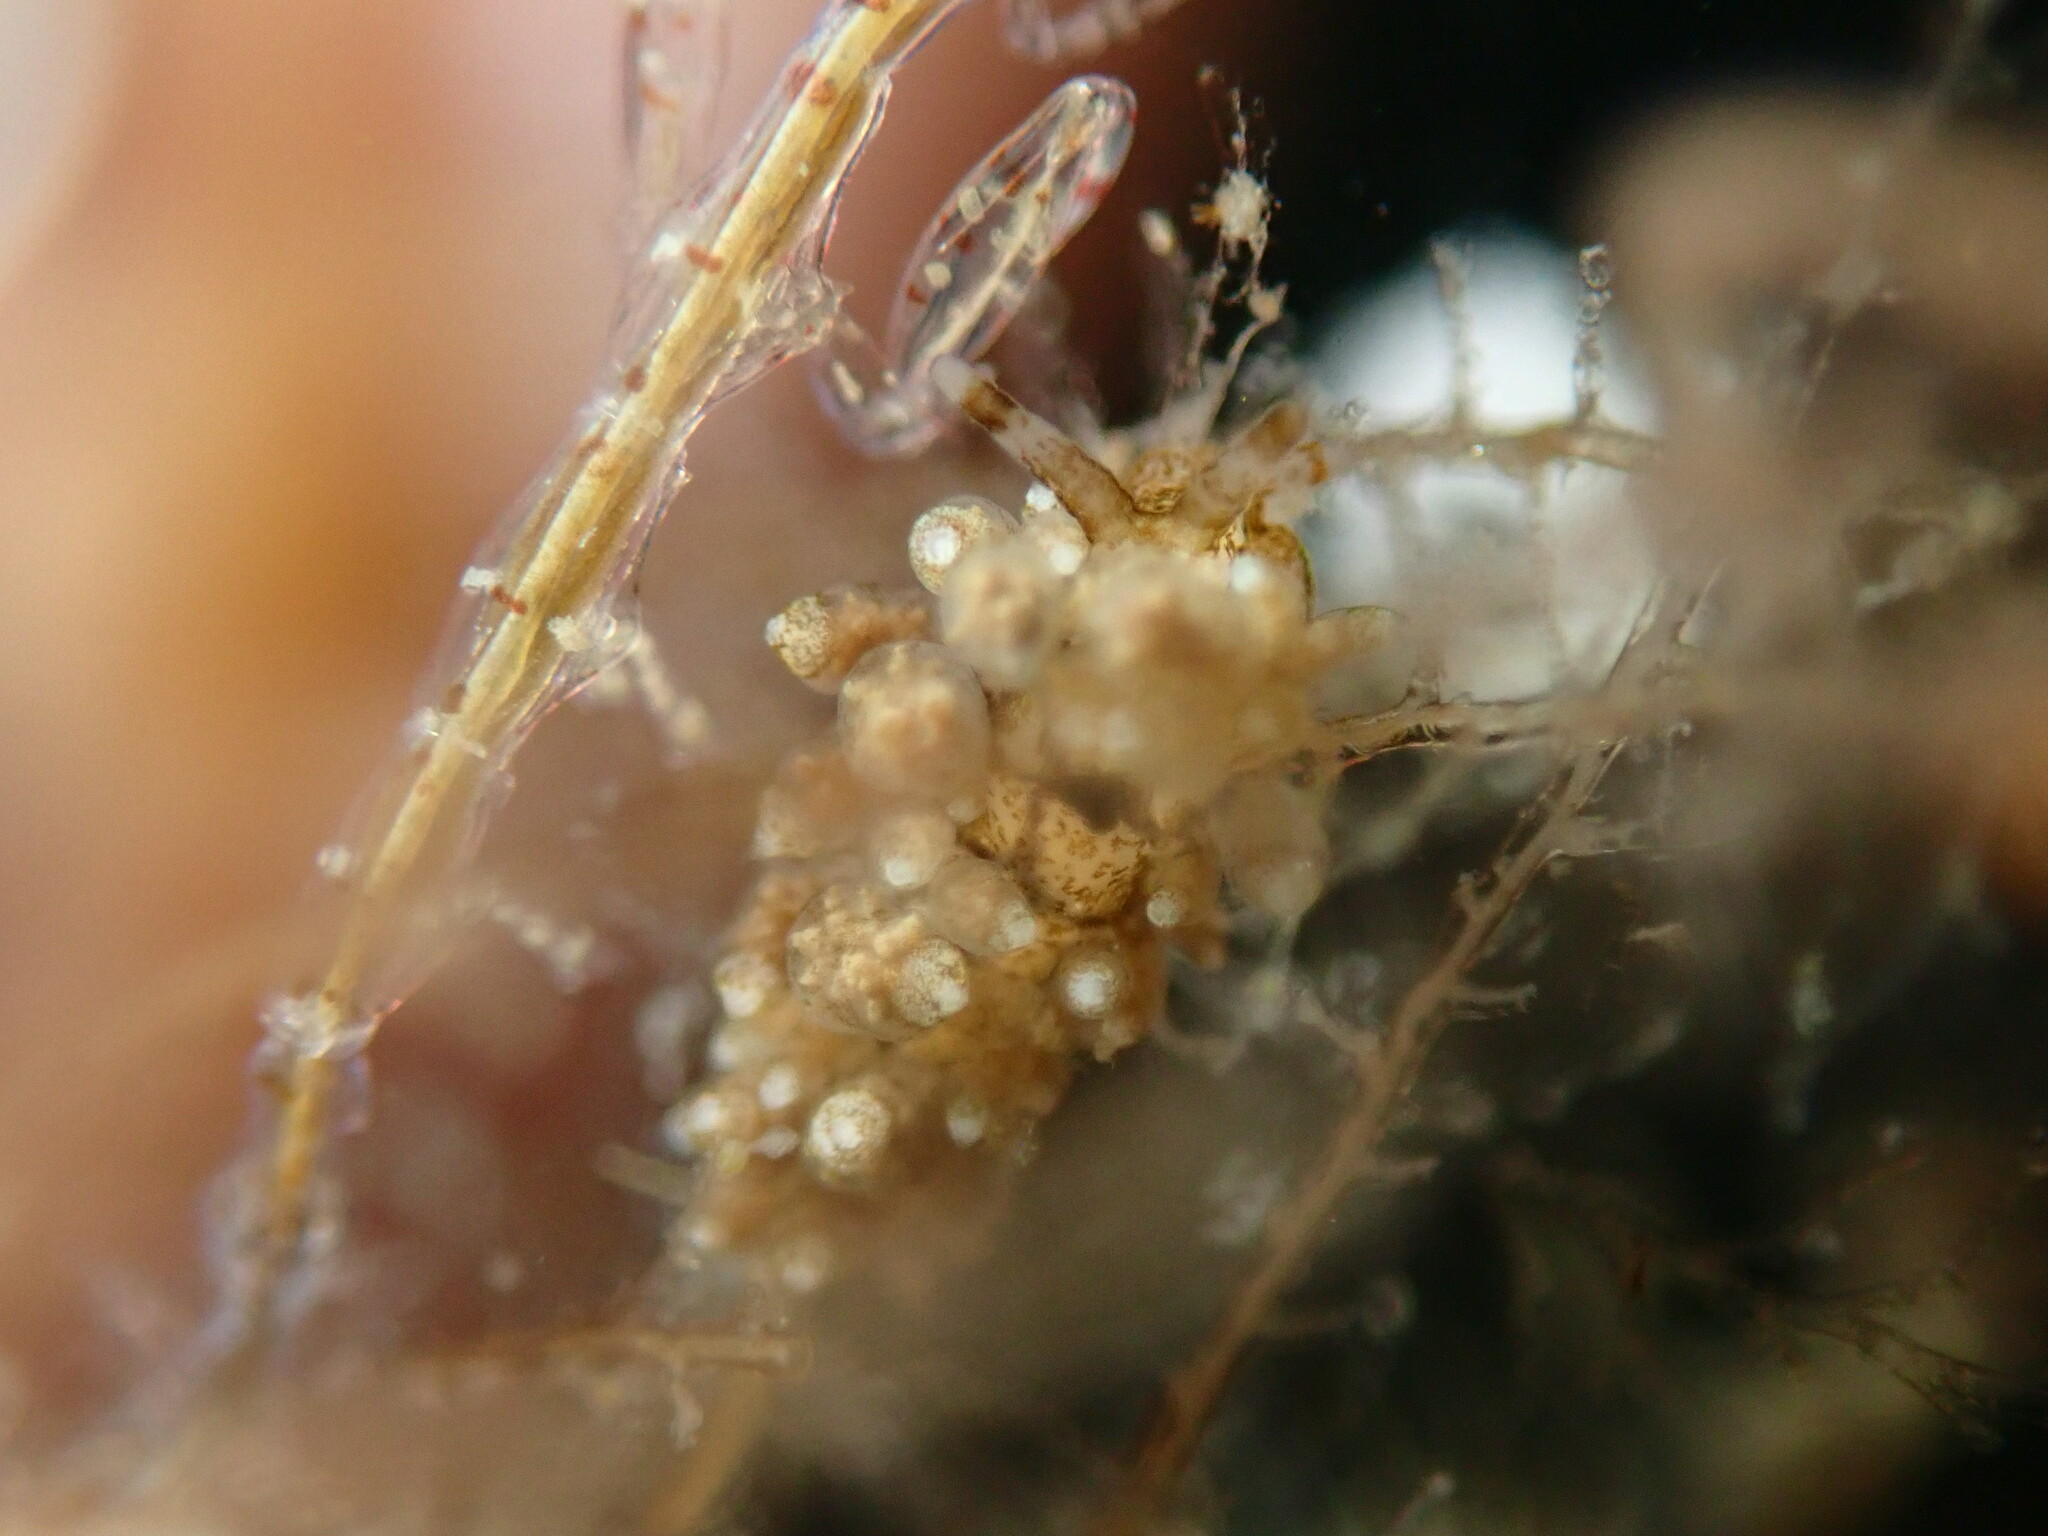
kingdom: Animalia
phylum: Mollusca
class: Gastropoda
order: Nudibranchia
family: Eubranchidae
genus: Eubranchus
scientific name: Eubranchus rustyus
